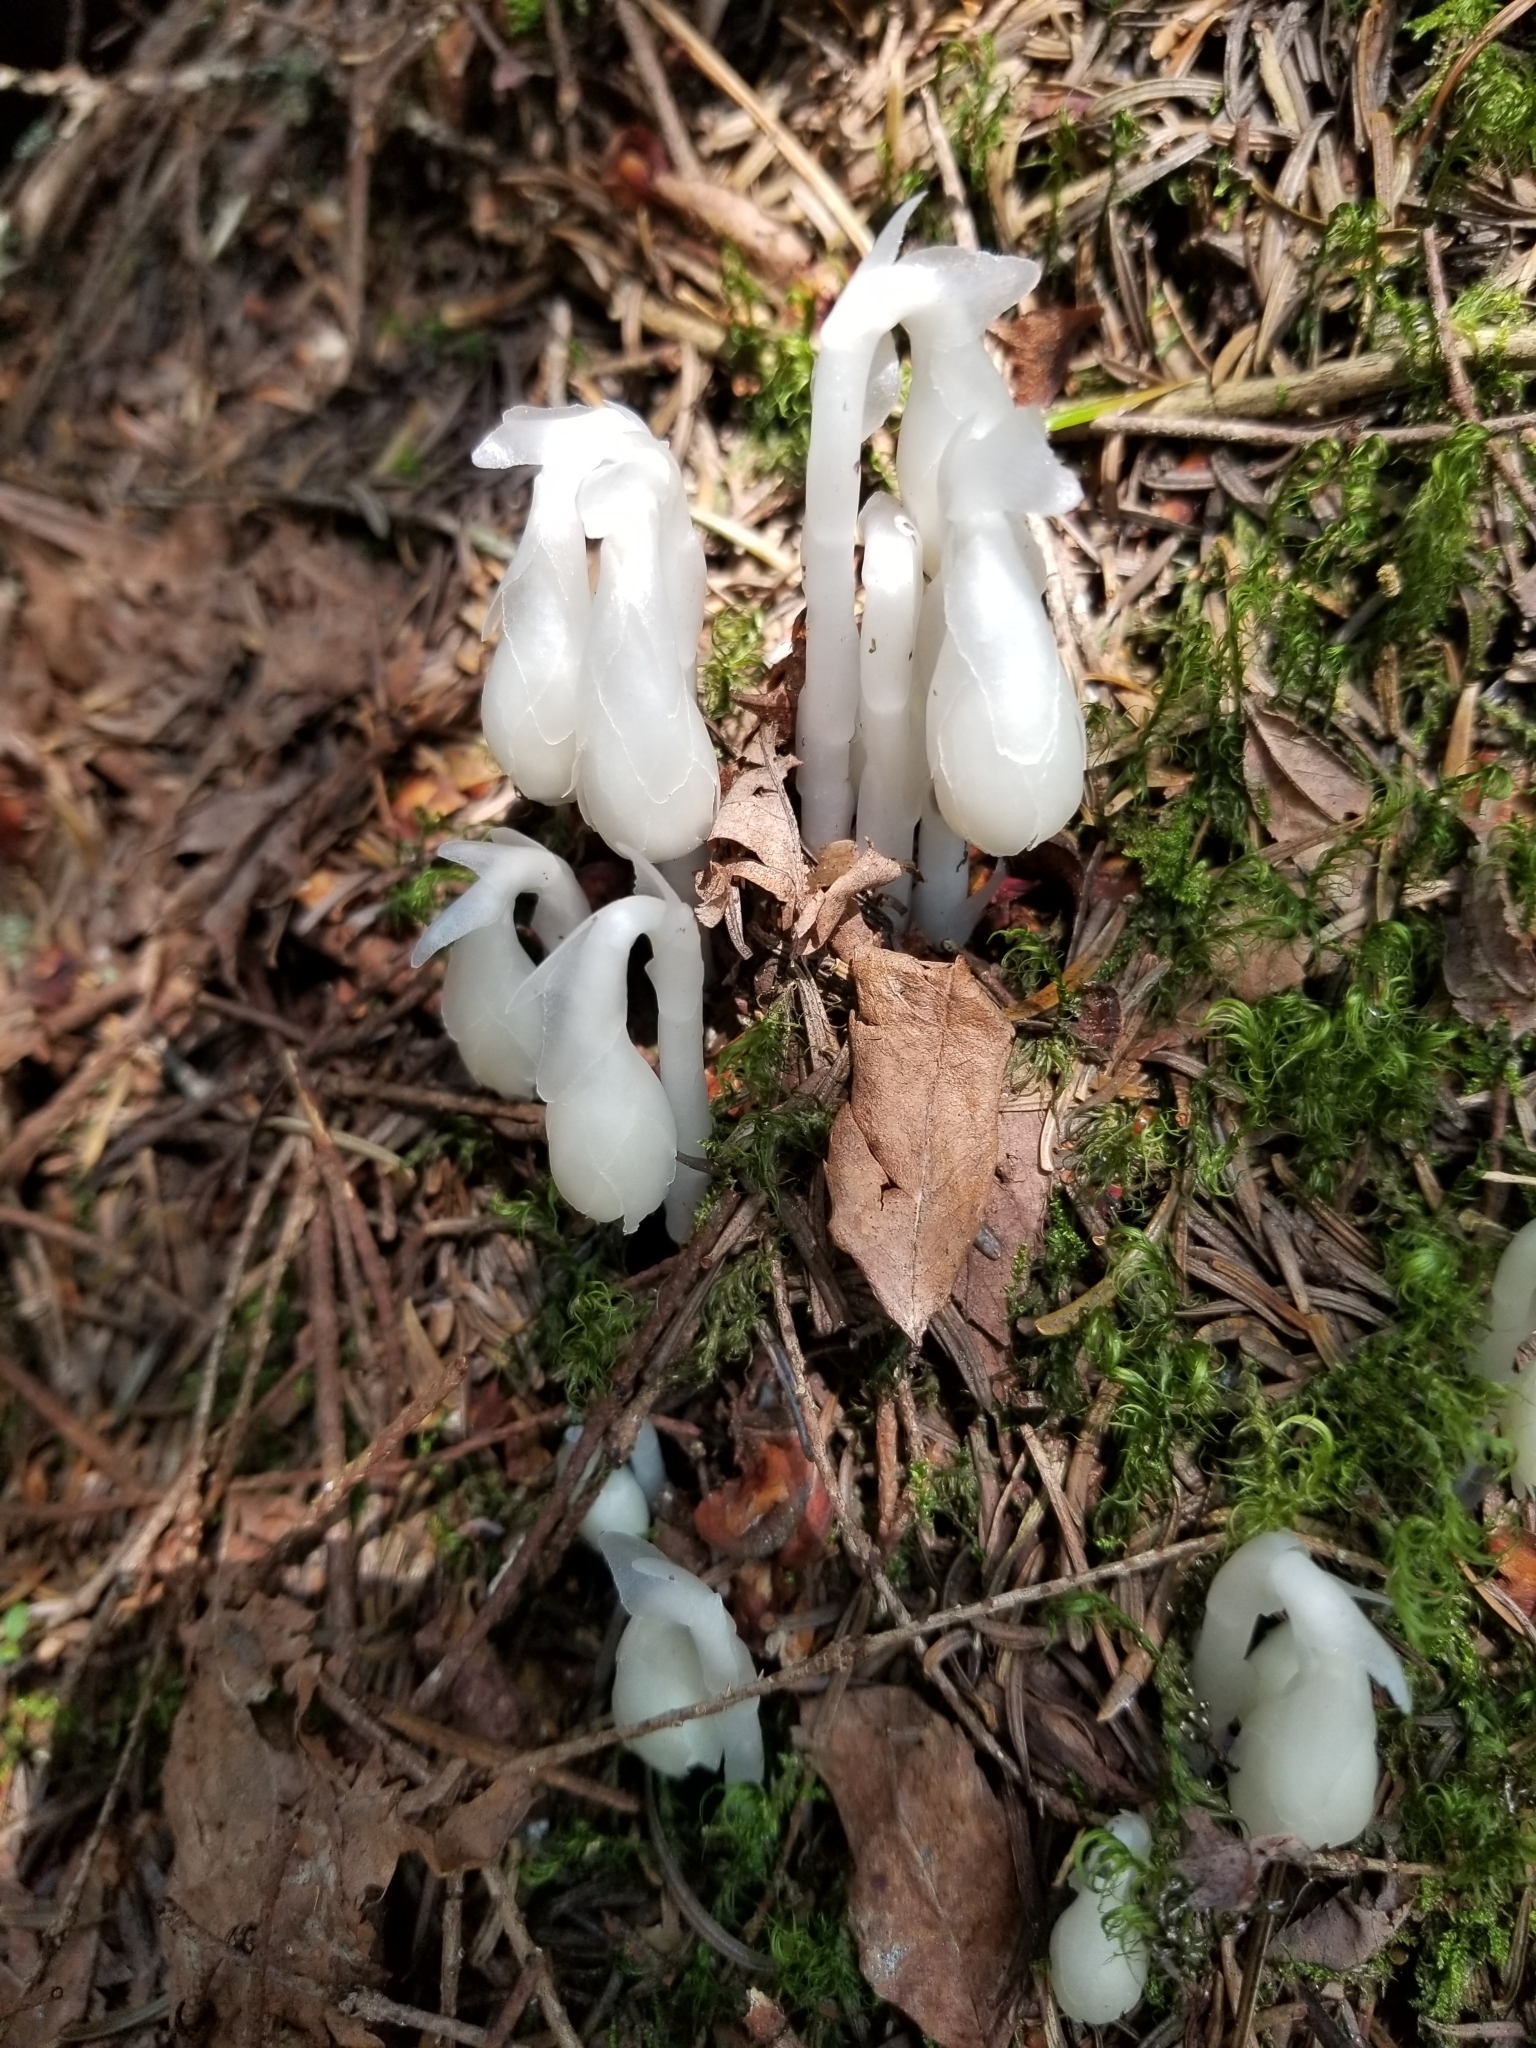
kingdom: Plantae
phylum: Tracheophyta
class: Magnoliopsida
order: Ericales
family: Ericaceae
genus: Monotropa
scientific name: Monotropa uniflora
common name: Convulsion root
